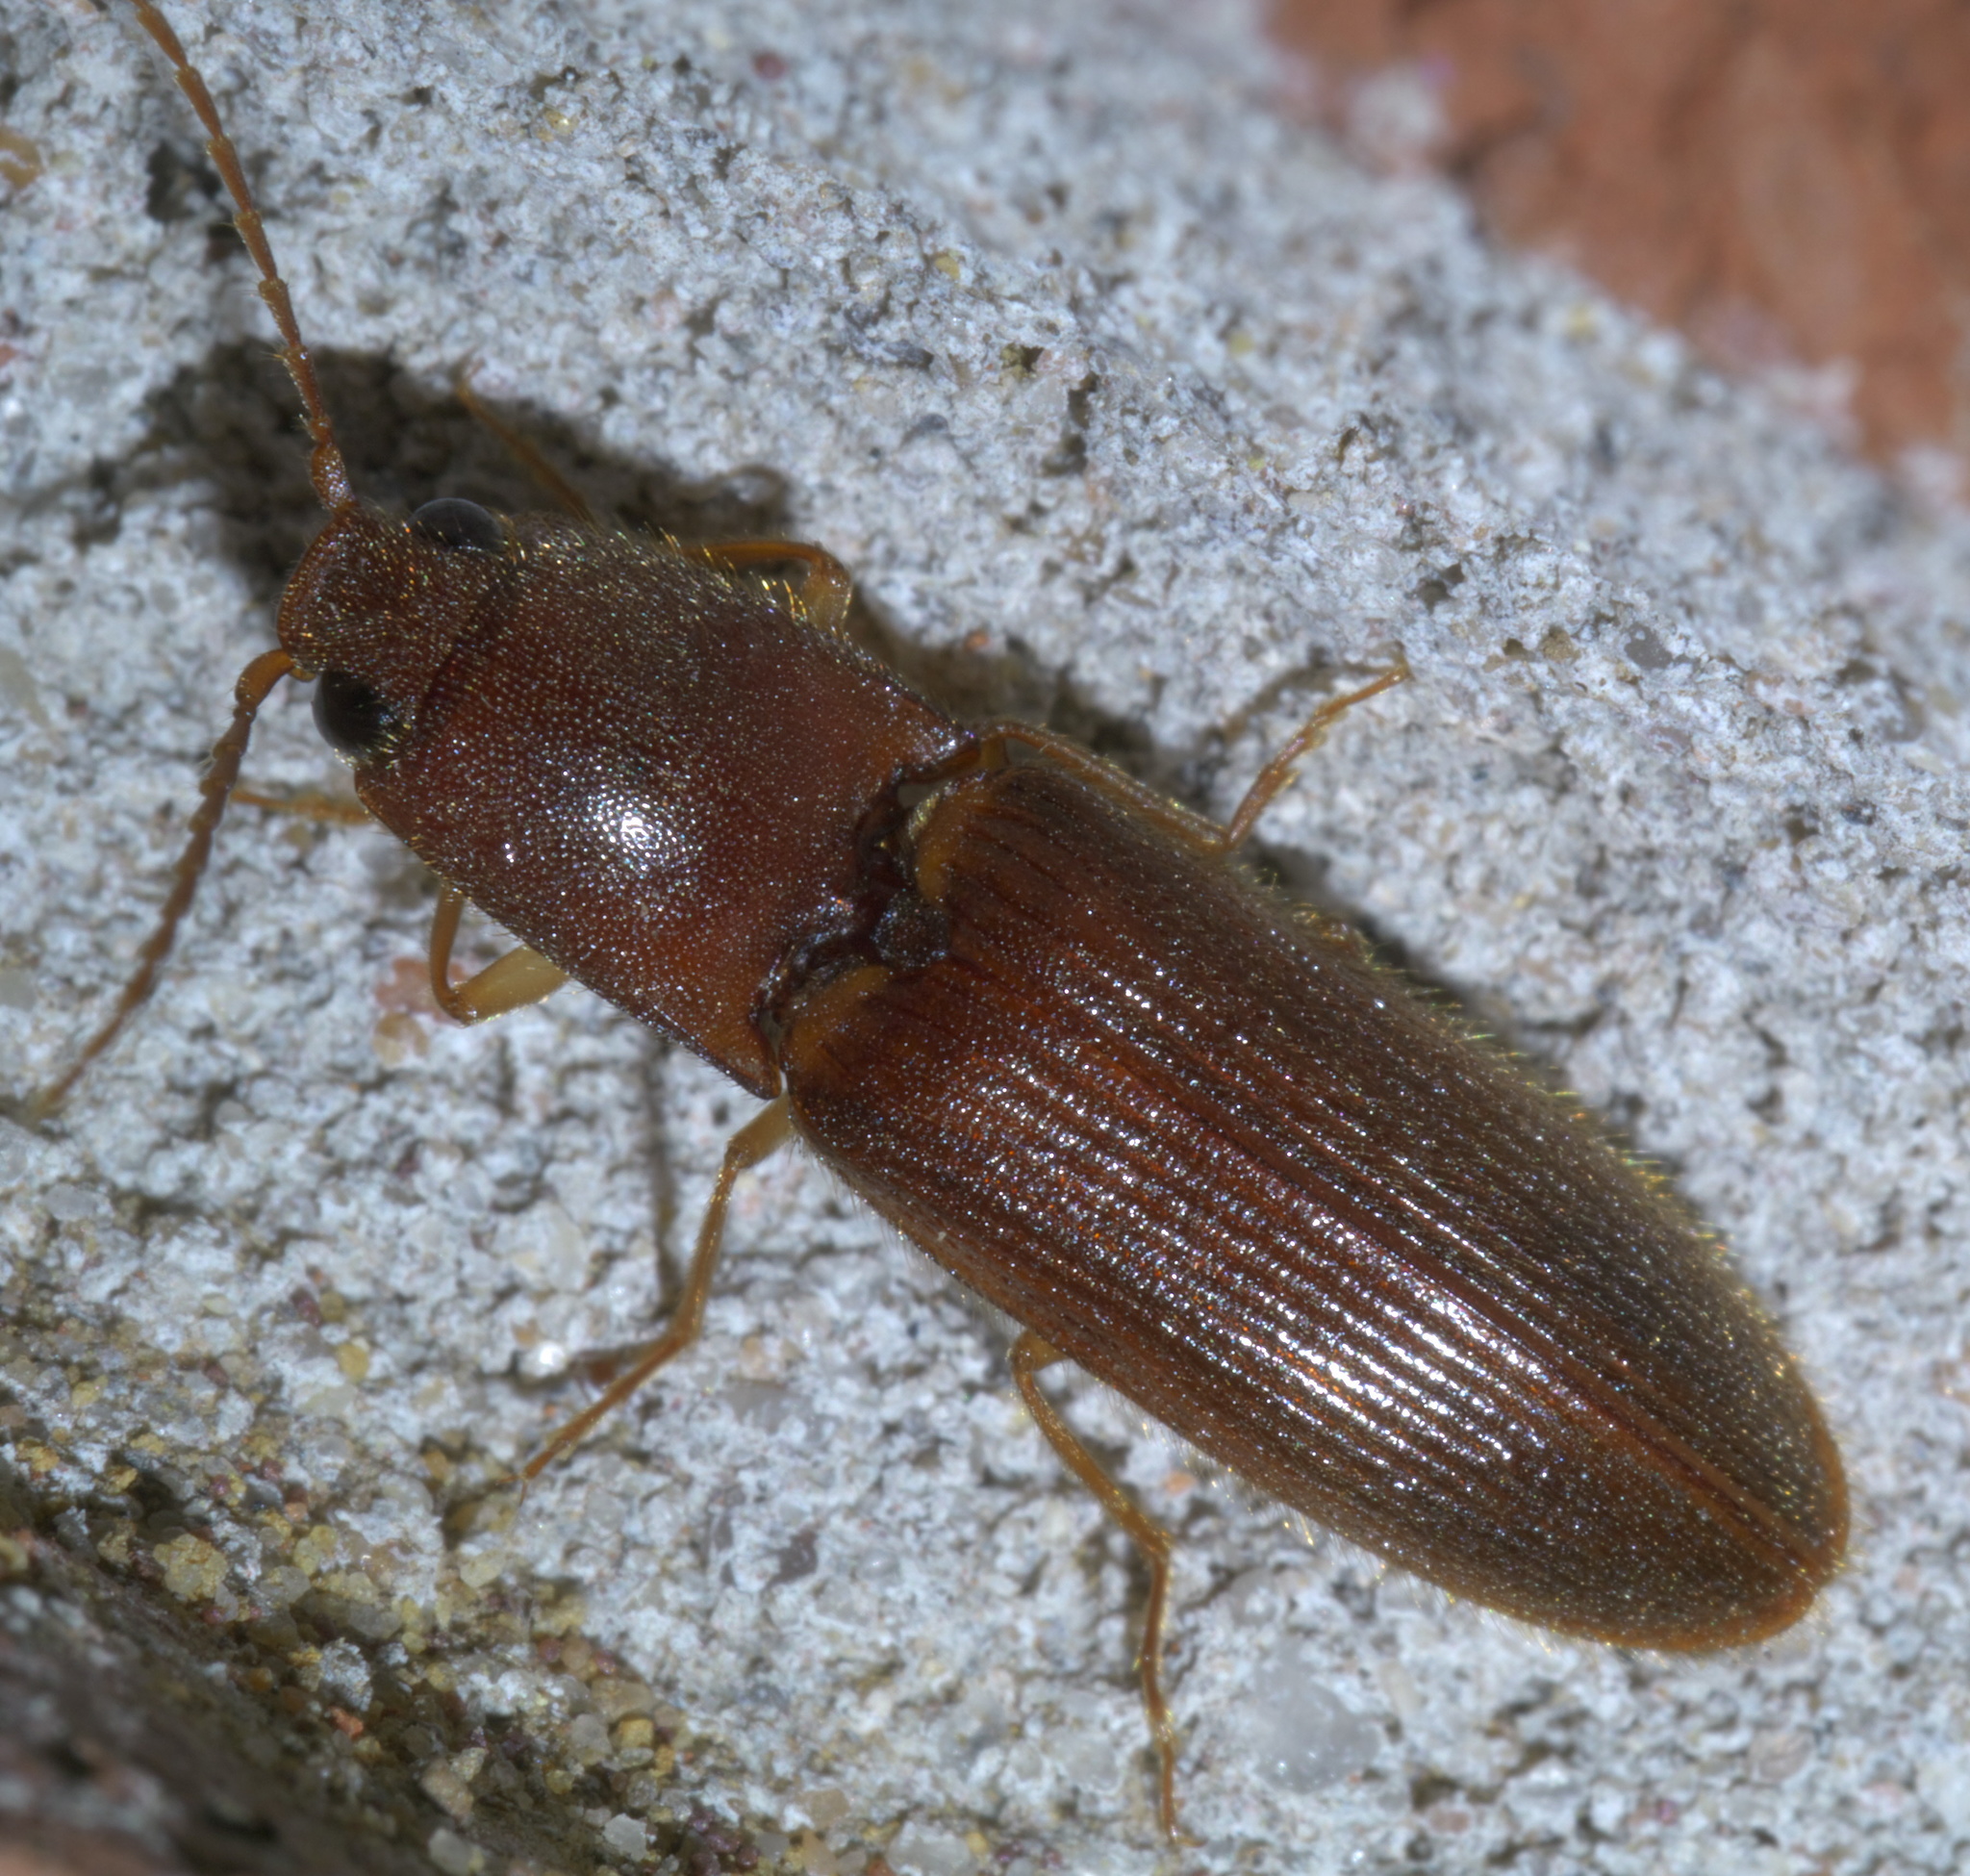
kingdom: Animalia
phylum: Arthropoda
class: Insecta
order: Coleoptera
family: Elateridae
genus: Athous
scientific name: Athous cucullatus
